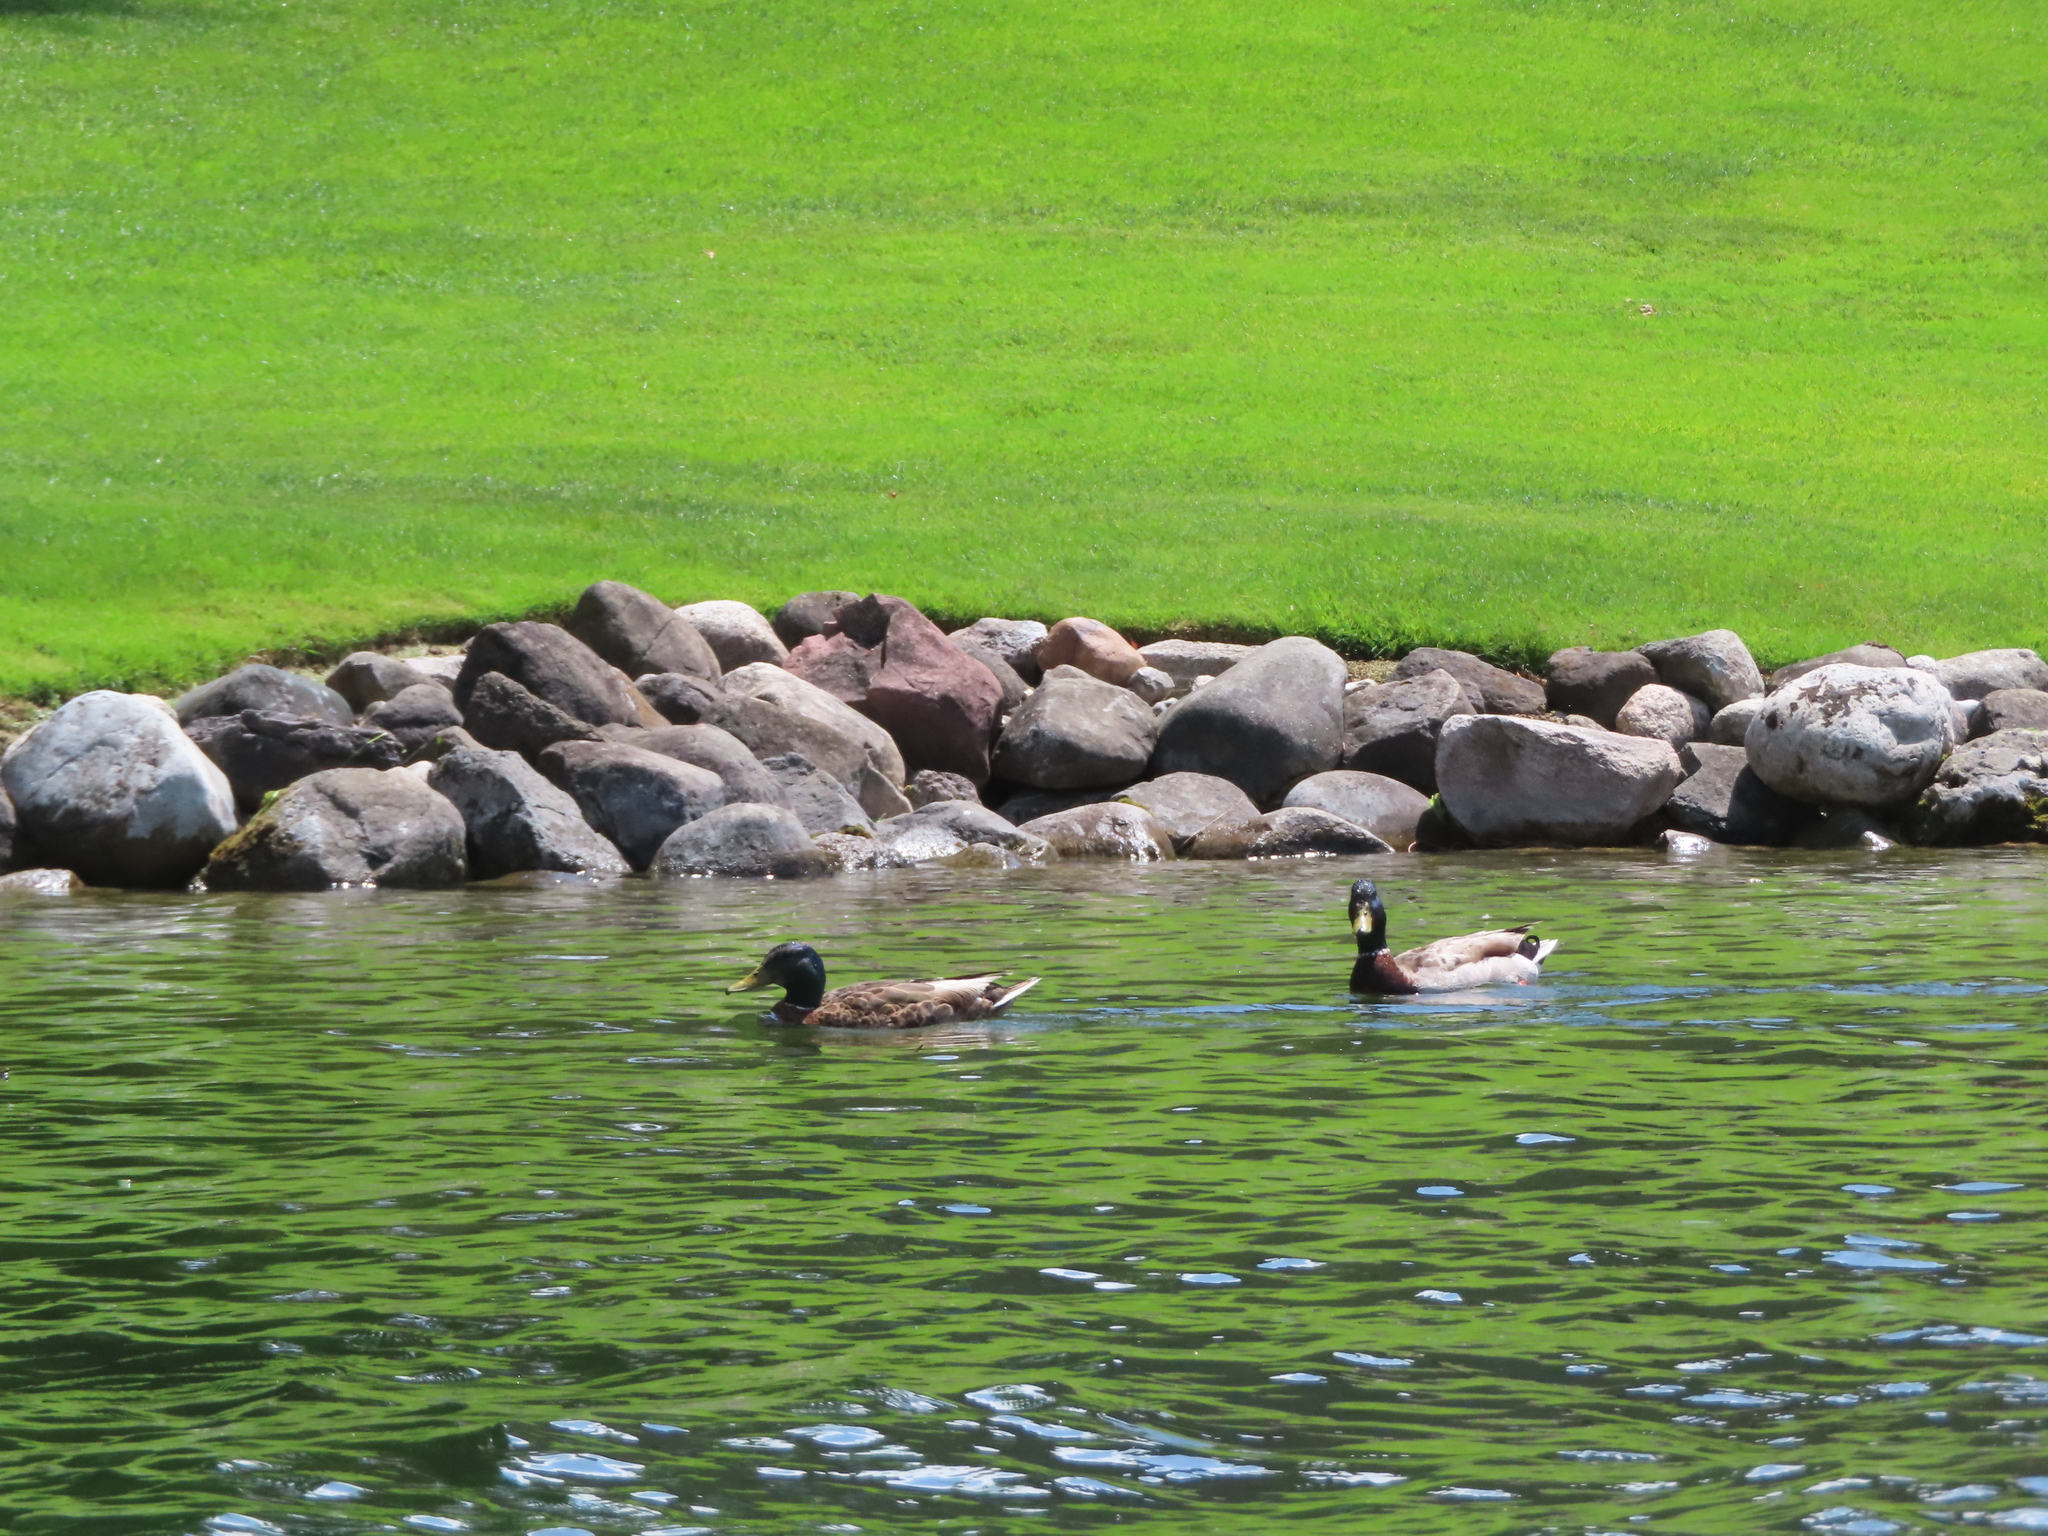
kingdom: Animalia
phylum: Chordata
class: Aves
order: Anseriformes
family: Anatidae
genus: Anas
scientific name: Anas platyrhynchos
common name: Mallard
